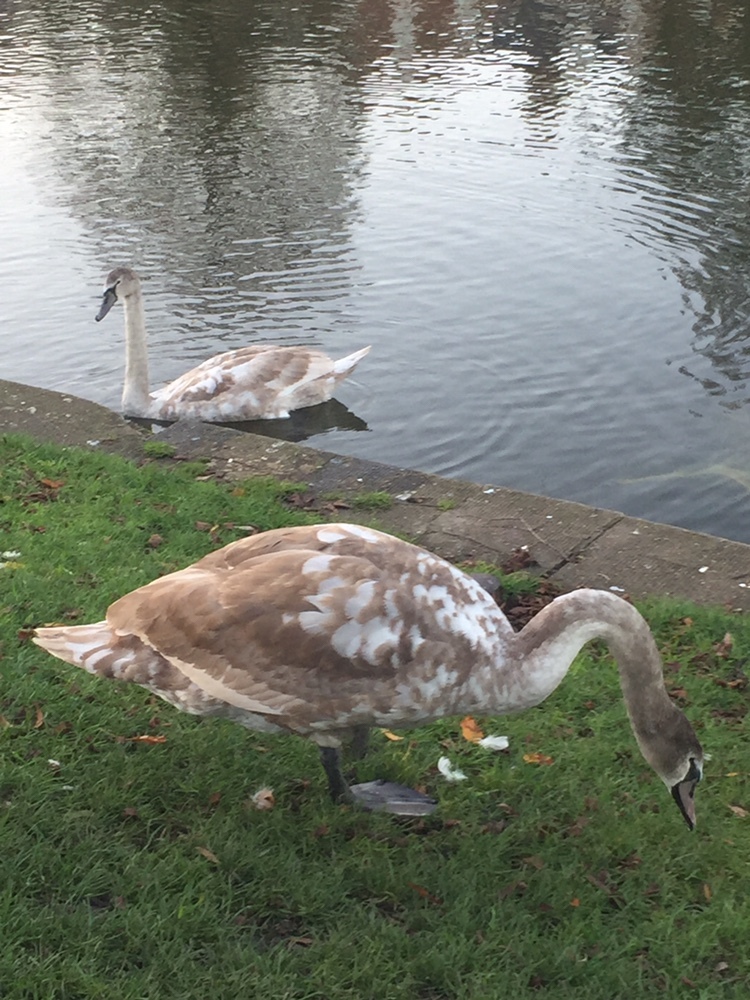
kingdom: Animalia
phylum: Chordata
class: Aves
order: Anseriformes
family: Anatidae
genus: Cygnus
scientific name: Cygnus olor
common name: Mute swan
